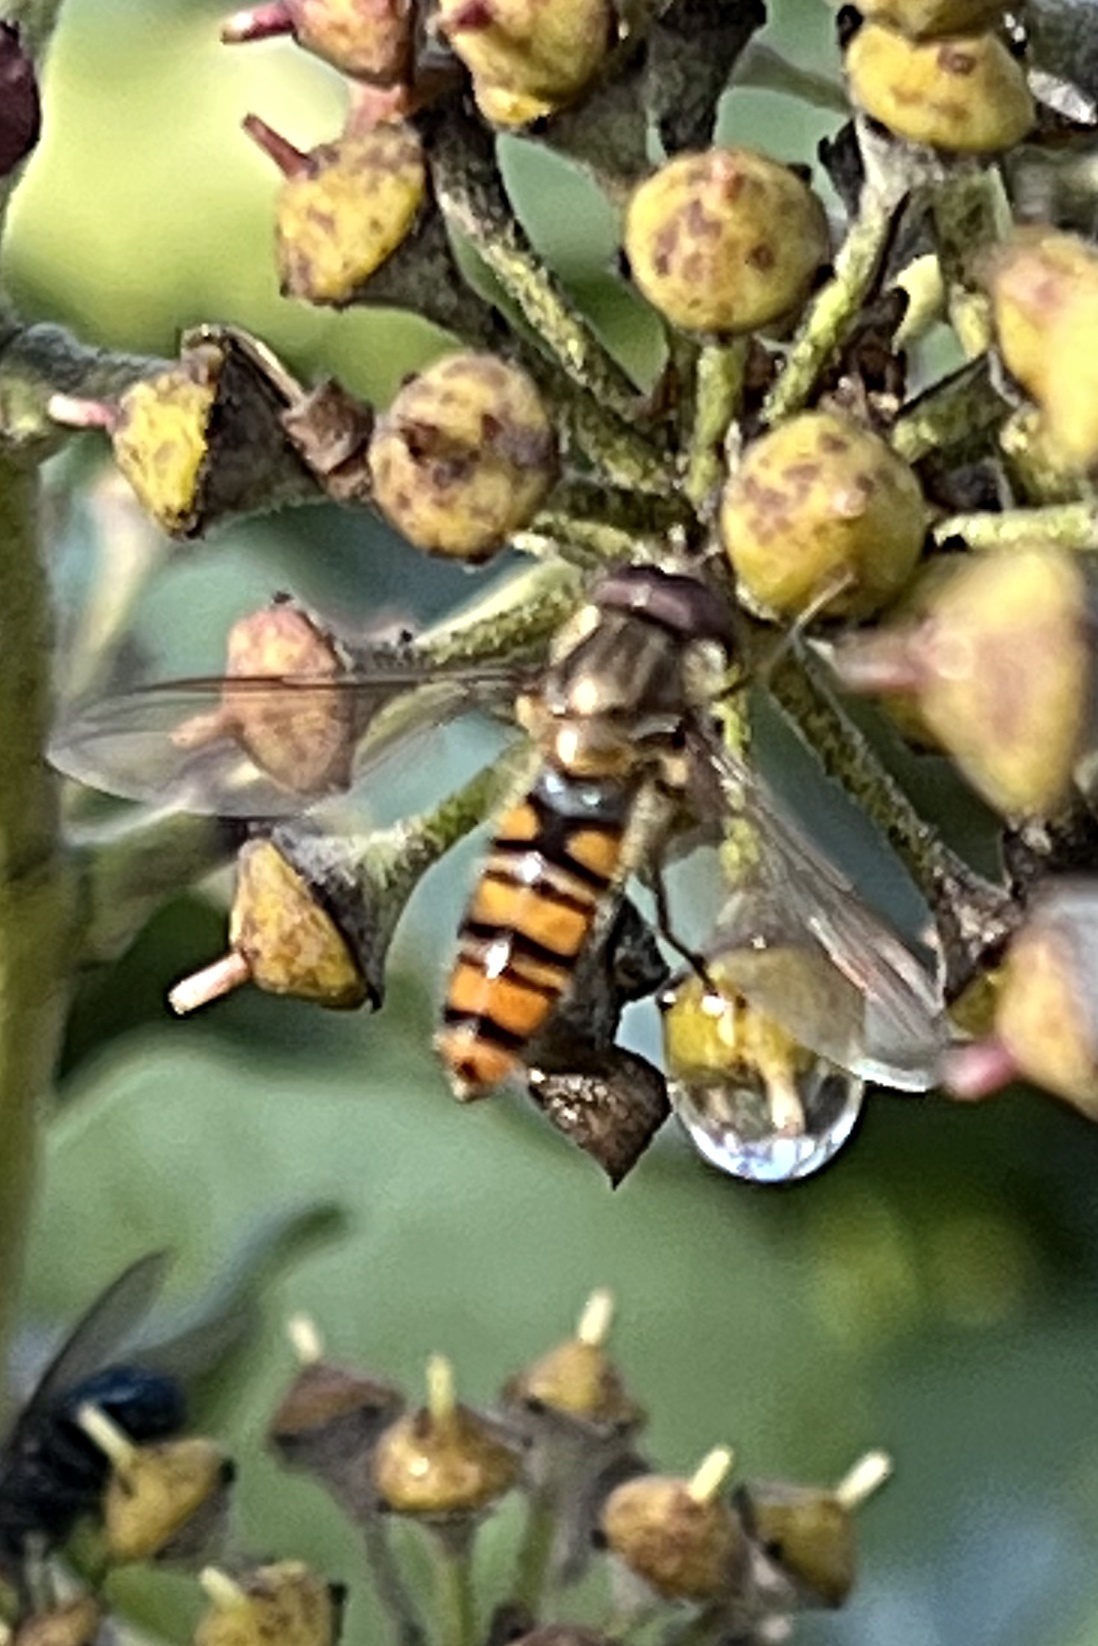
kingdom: Animalia
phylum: Arthropoda
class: Insecta
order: Diptera
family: Syrphidae
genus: Episyrphus
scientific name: Episyrphus balteatus
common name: Marmalade hoverfly
